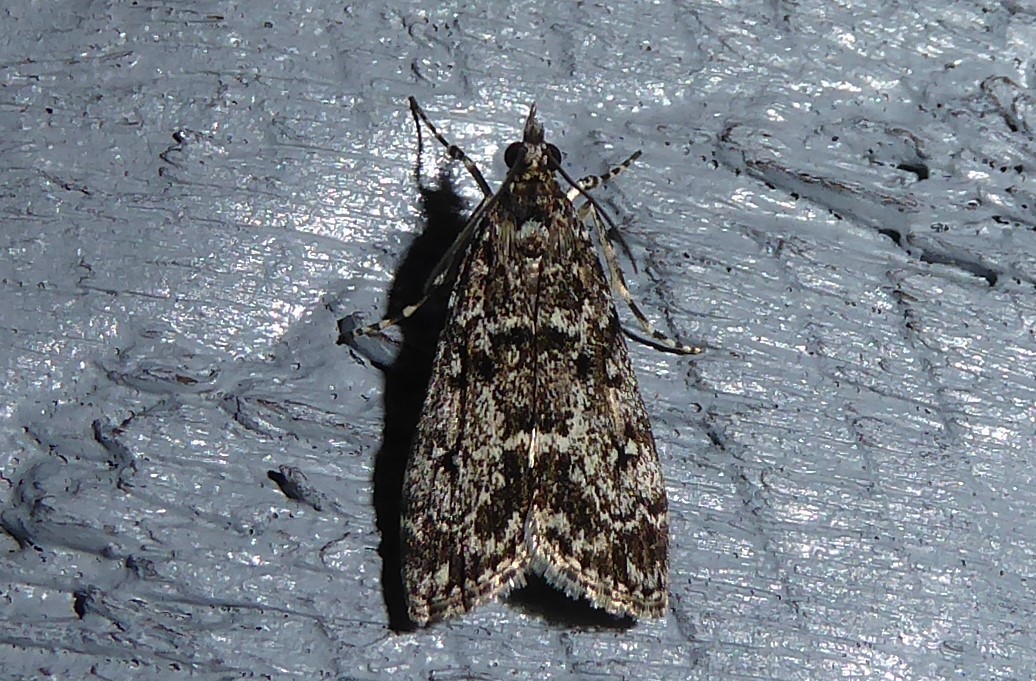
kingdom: Animalia
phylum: Arthropoda
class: Insecta
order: Lepidoptera
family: Crambidae
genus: Eudonia
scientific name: Eudonia philerga
